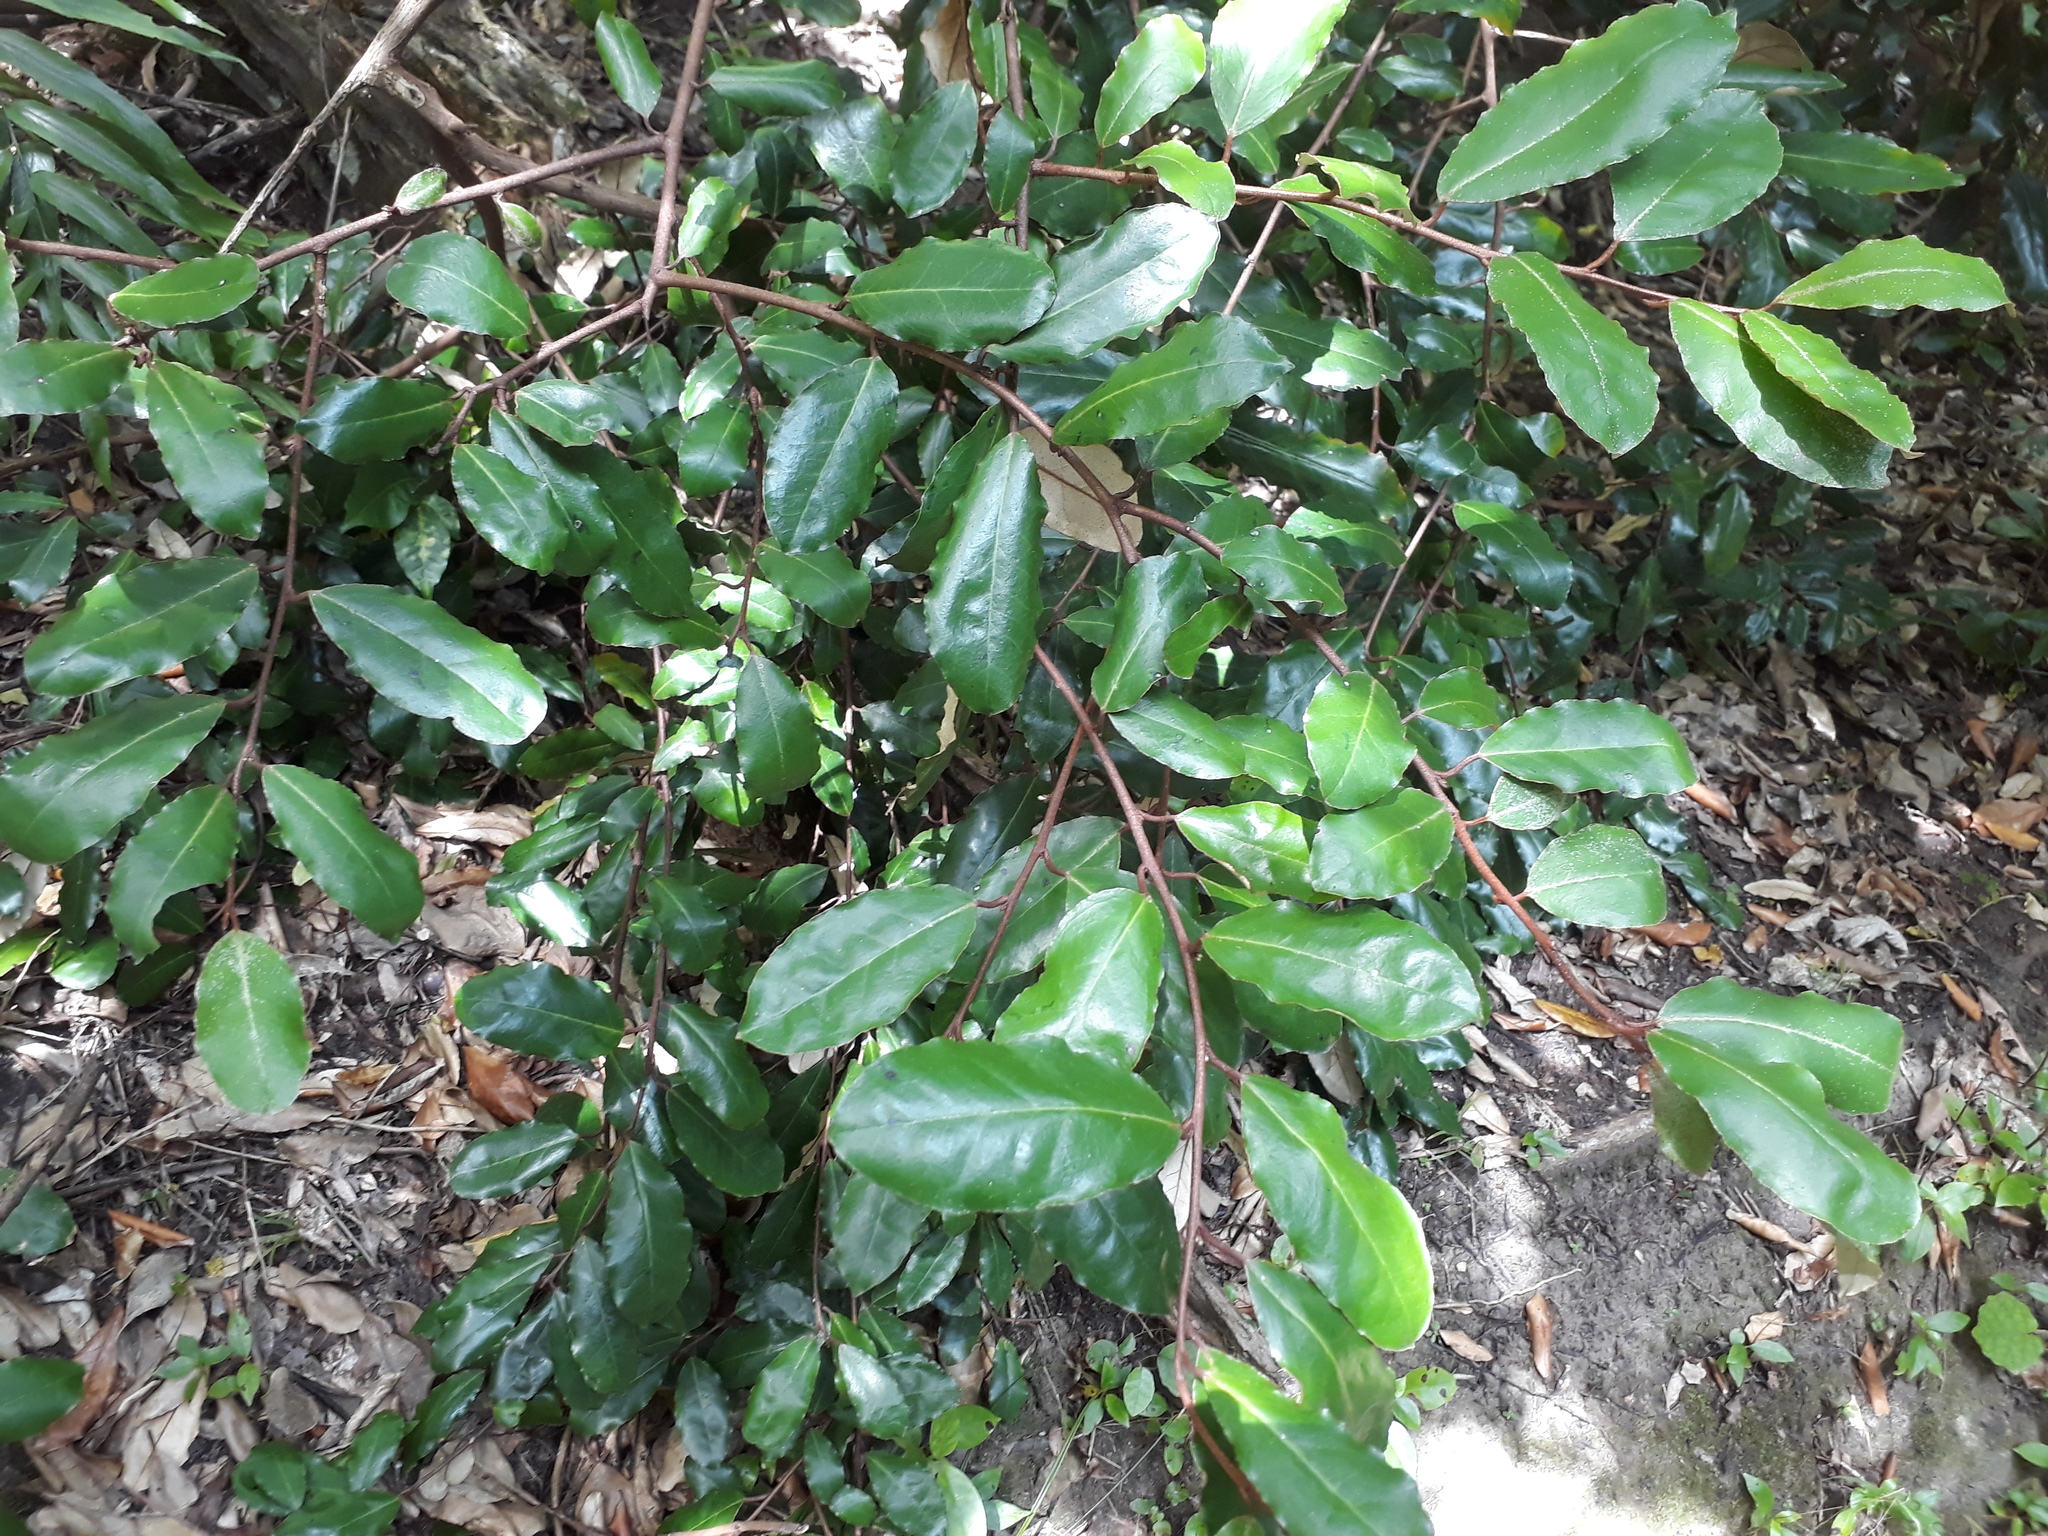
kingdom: Plantae
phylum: Tracheophyta
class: Magnoliopsida
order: Rosales
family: Elaeagnaceae
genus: Elaeagnus
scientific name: Elaeagnus reflexa
